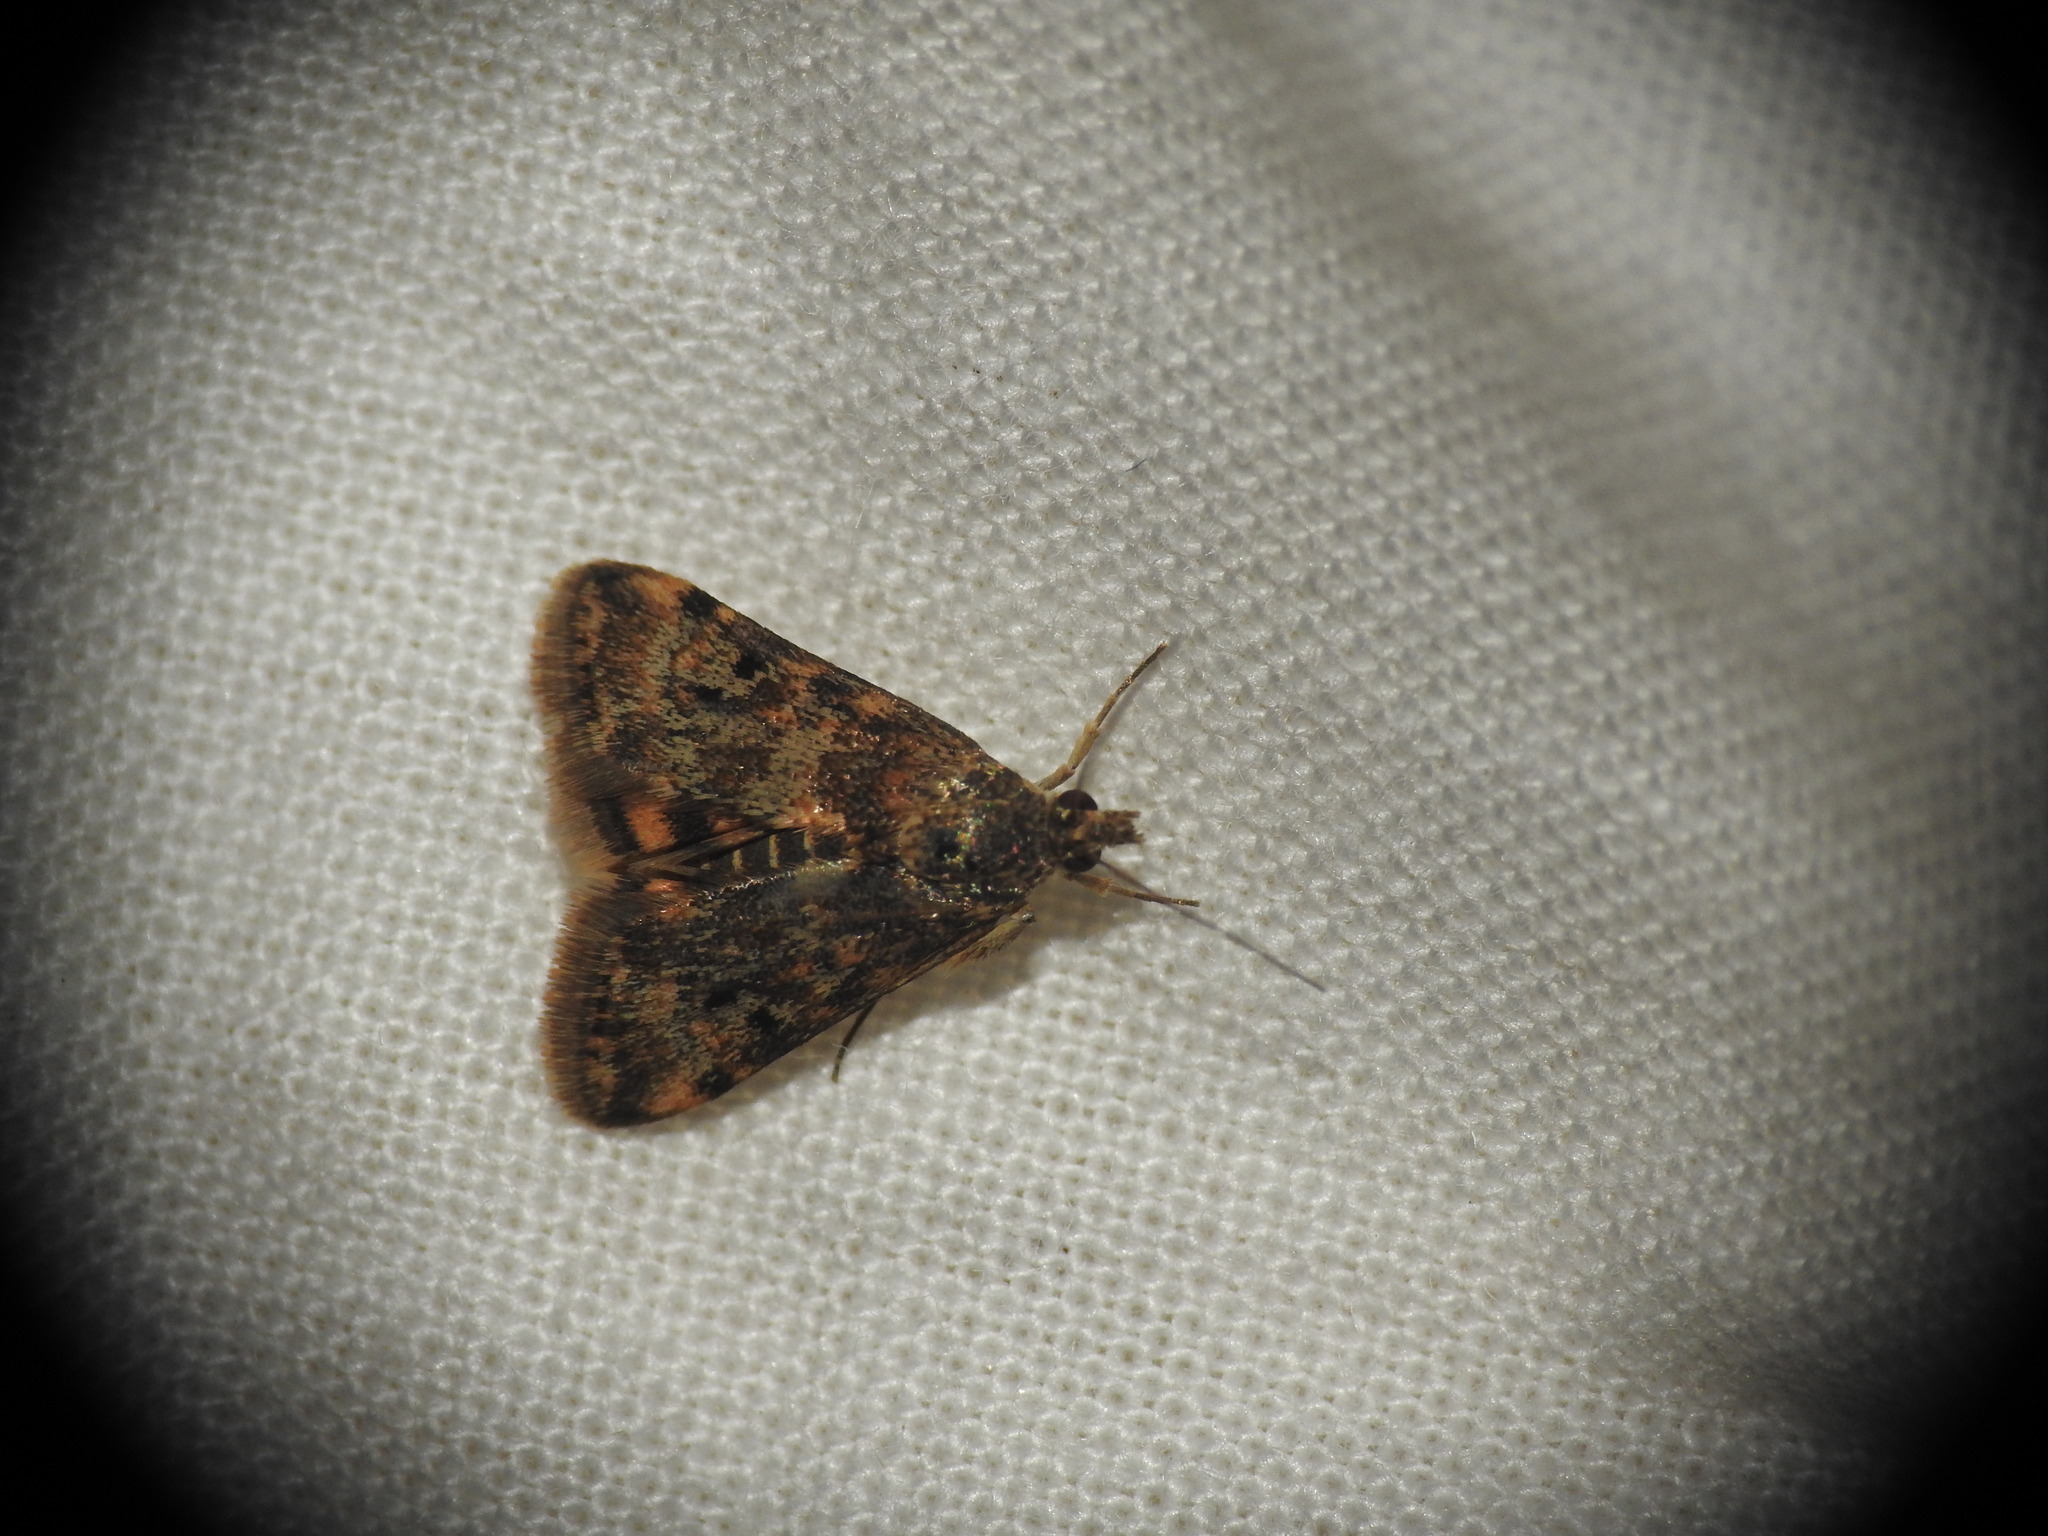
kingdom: Animalia
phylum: Arthropoda
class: Insecta
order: Lepidoptera
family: Crambidae
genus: Noctuelia
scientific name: Noctuelia Aporodes floralis
